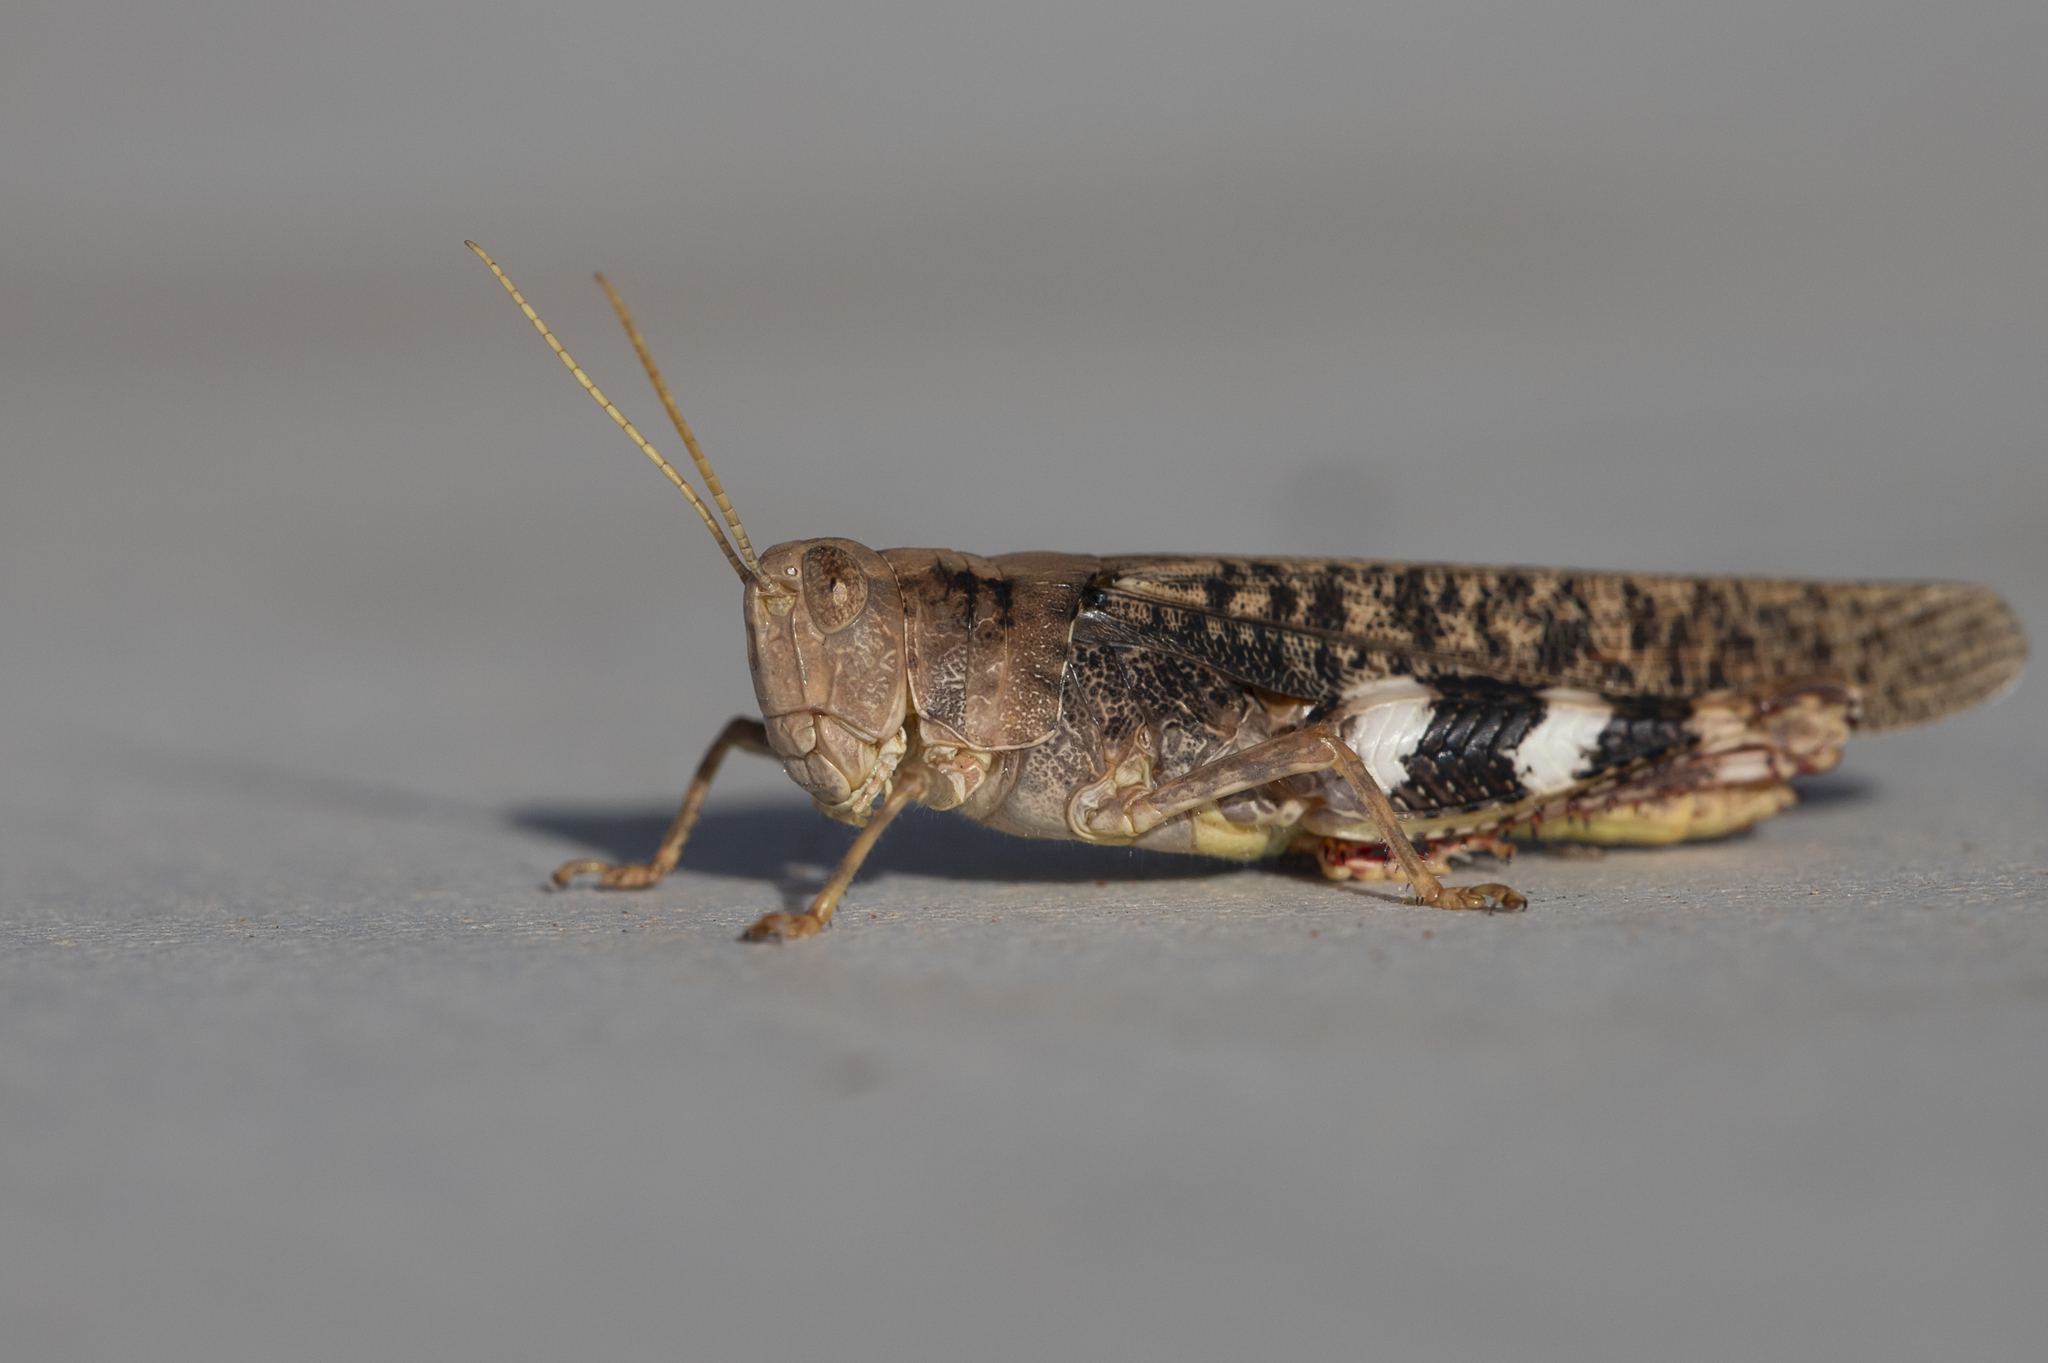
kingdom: Animalia
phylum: Arthropoda
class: Insecta
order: Orthoptera
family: Acrididae
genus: Cuprascula
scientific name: Cuprascula pictipes
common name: Copper-winged grasshopper
